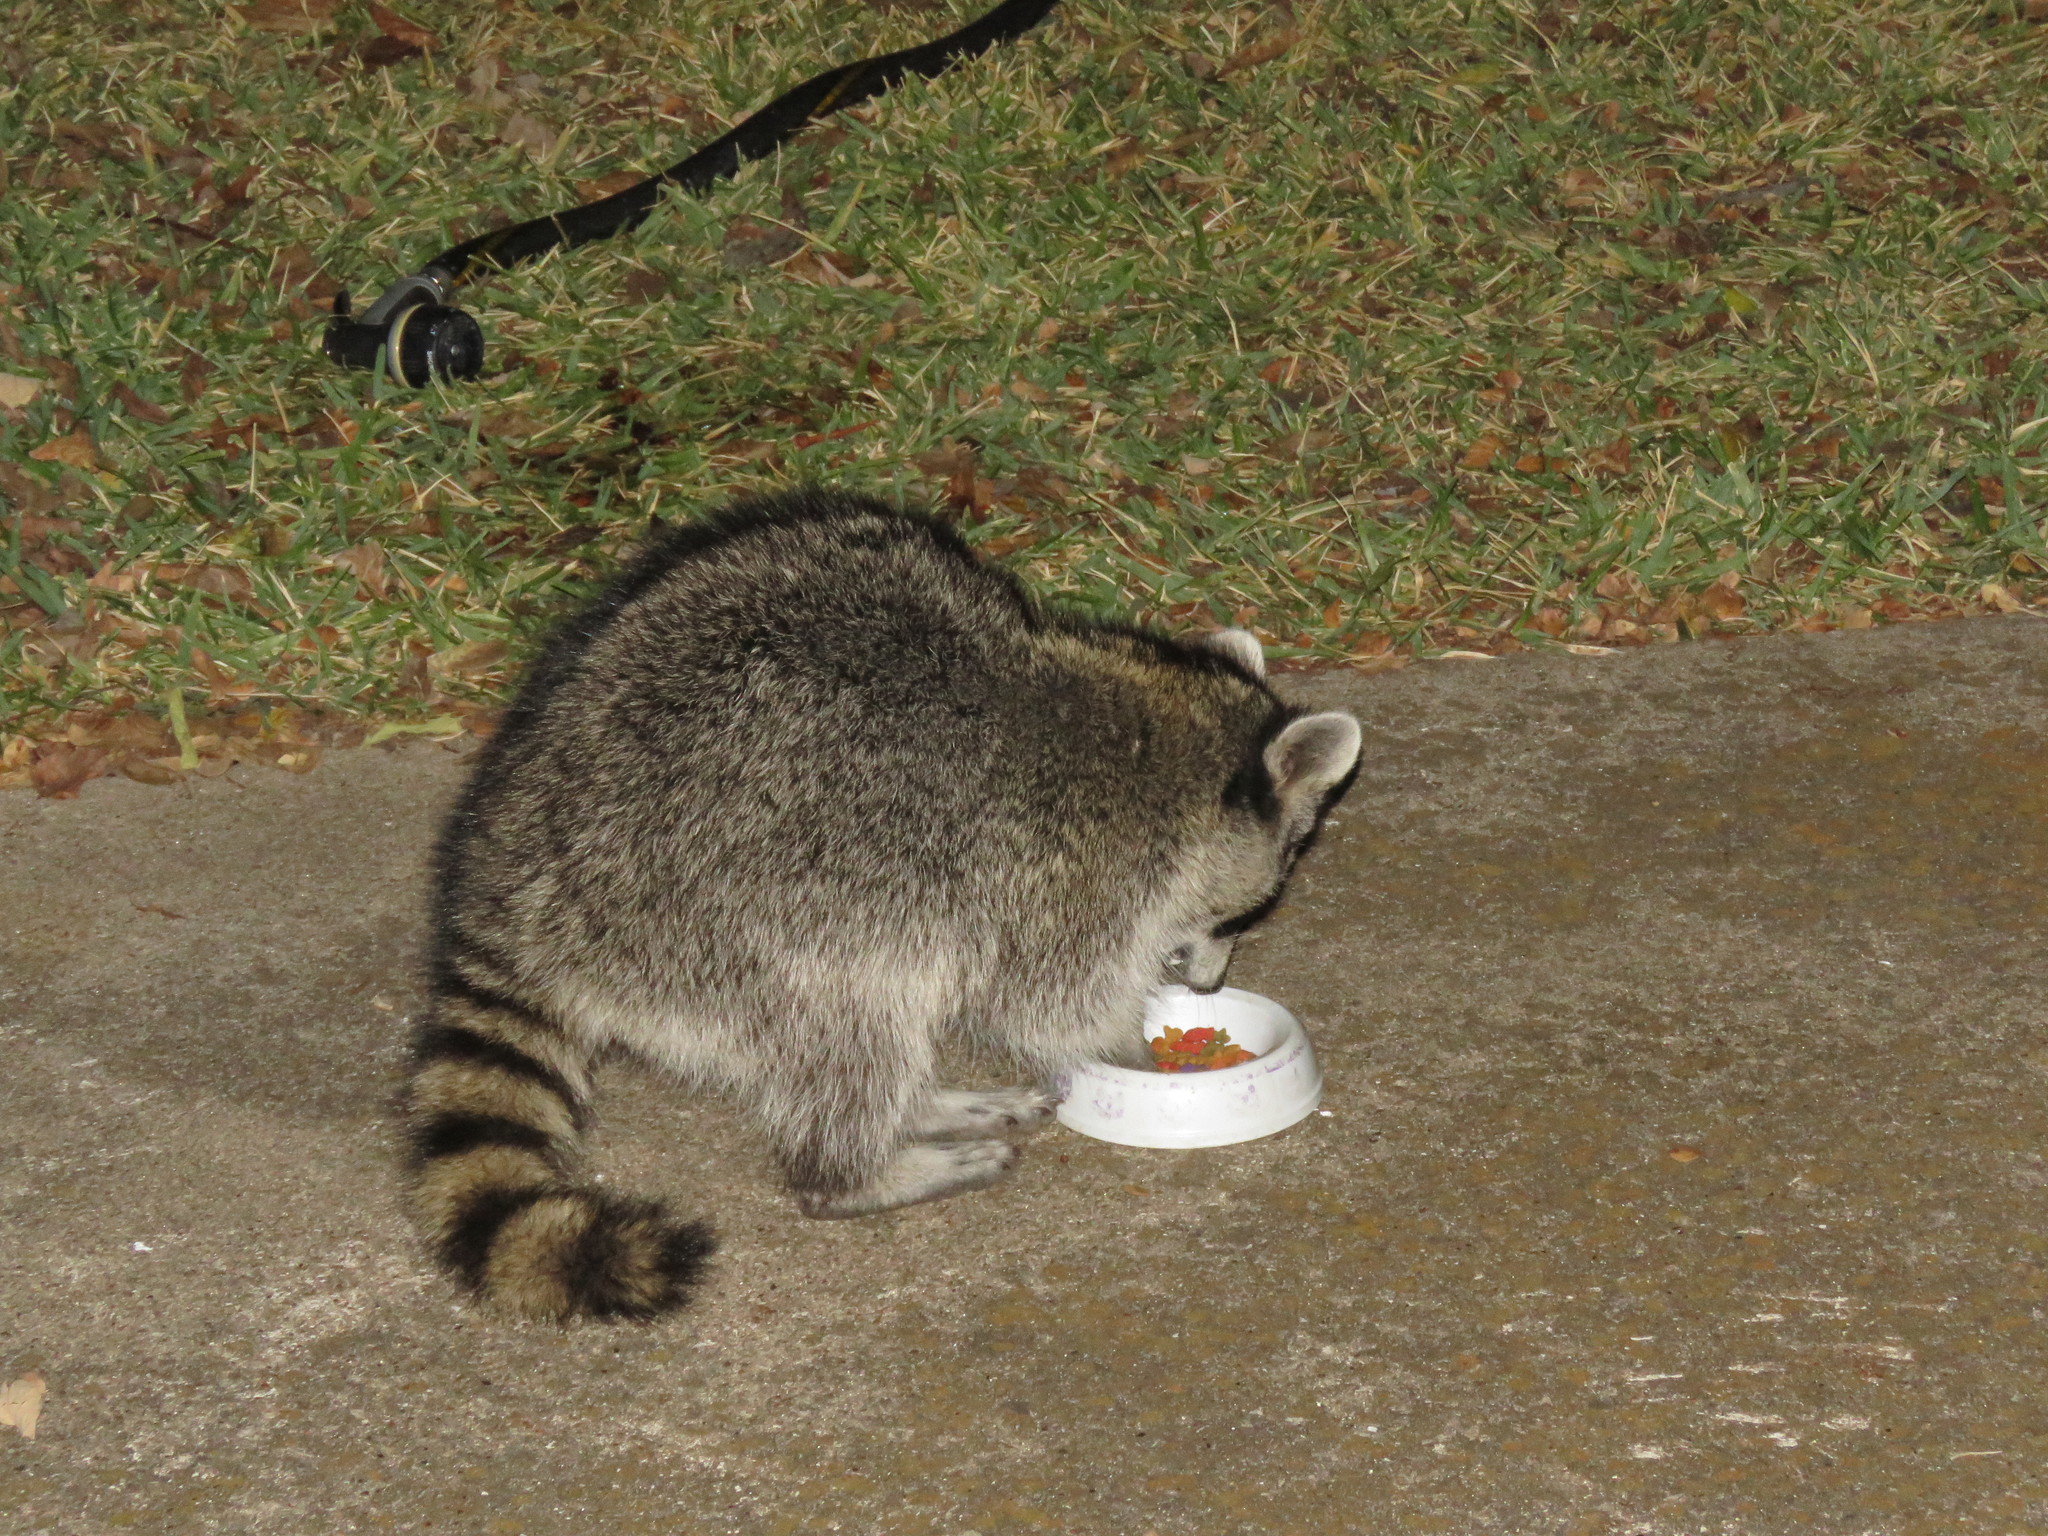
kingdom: Animalia
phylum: Chordata
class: Mammalia
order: Carnivora
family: Procyonidae
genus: Procyon
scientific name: Procyon lotor
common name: Raccoon
